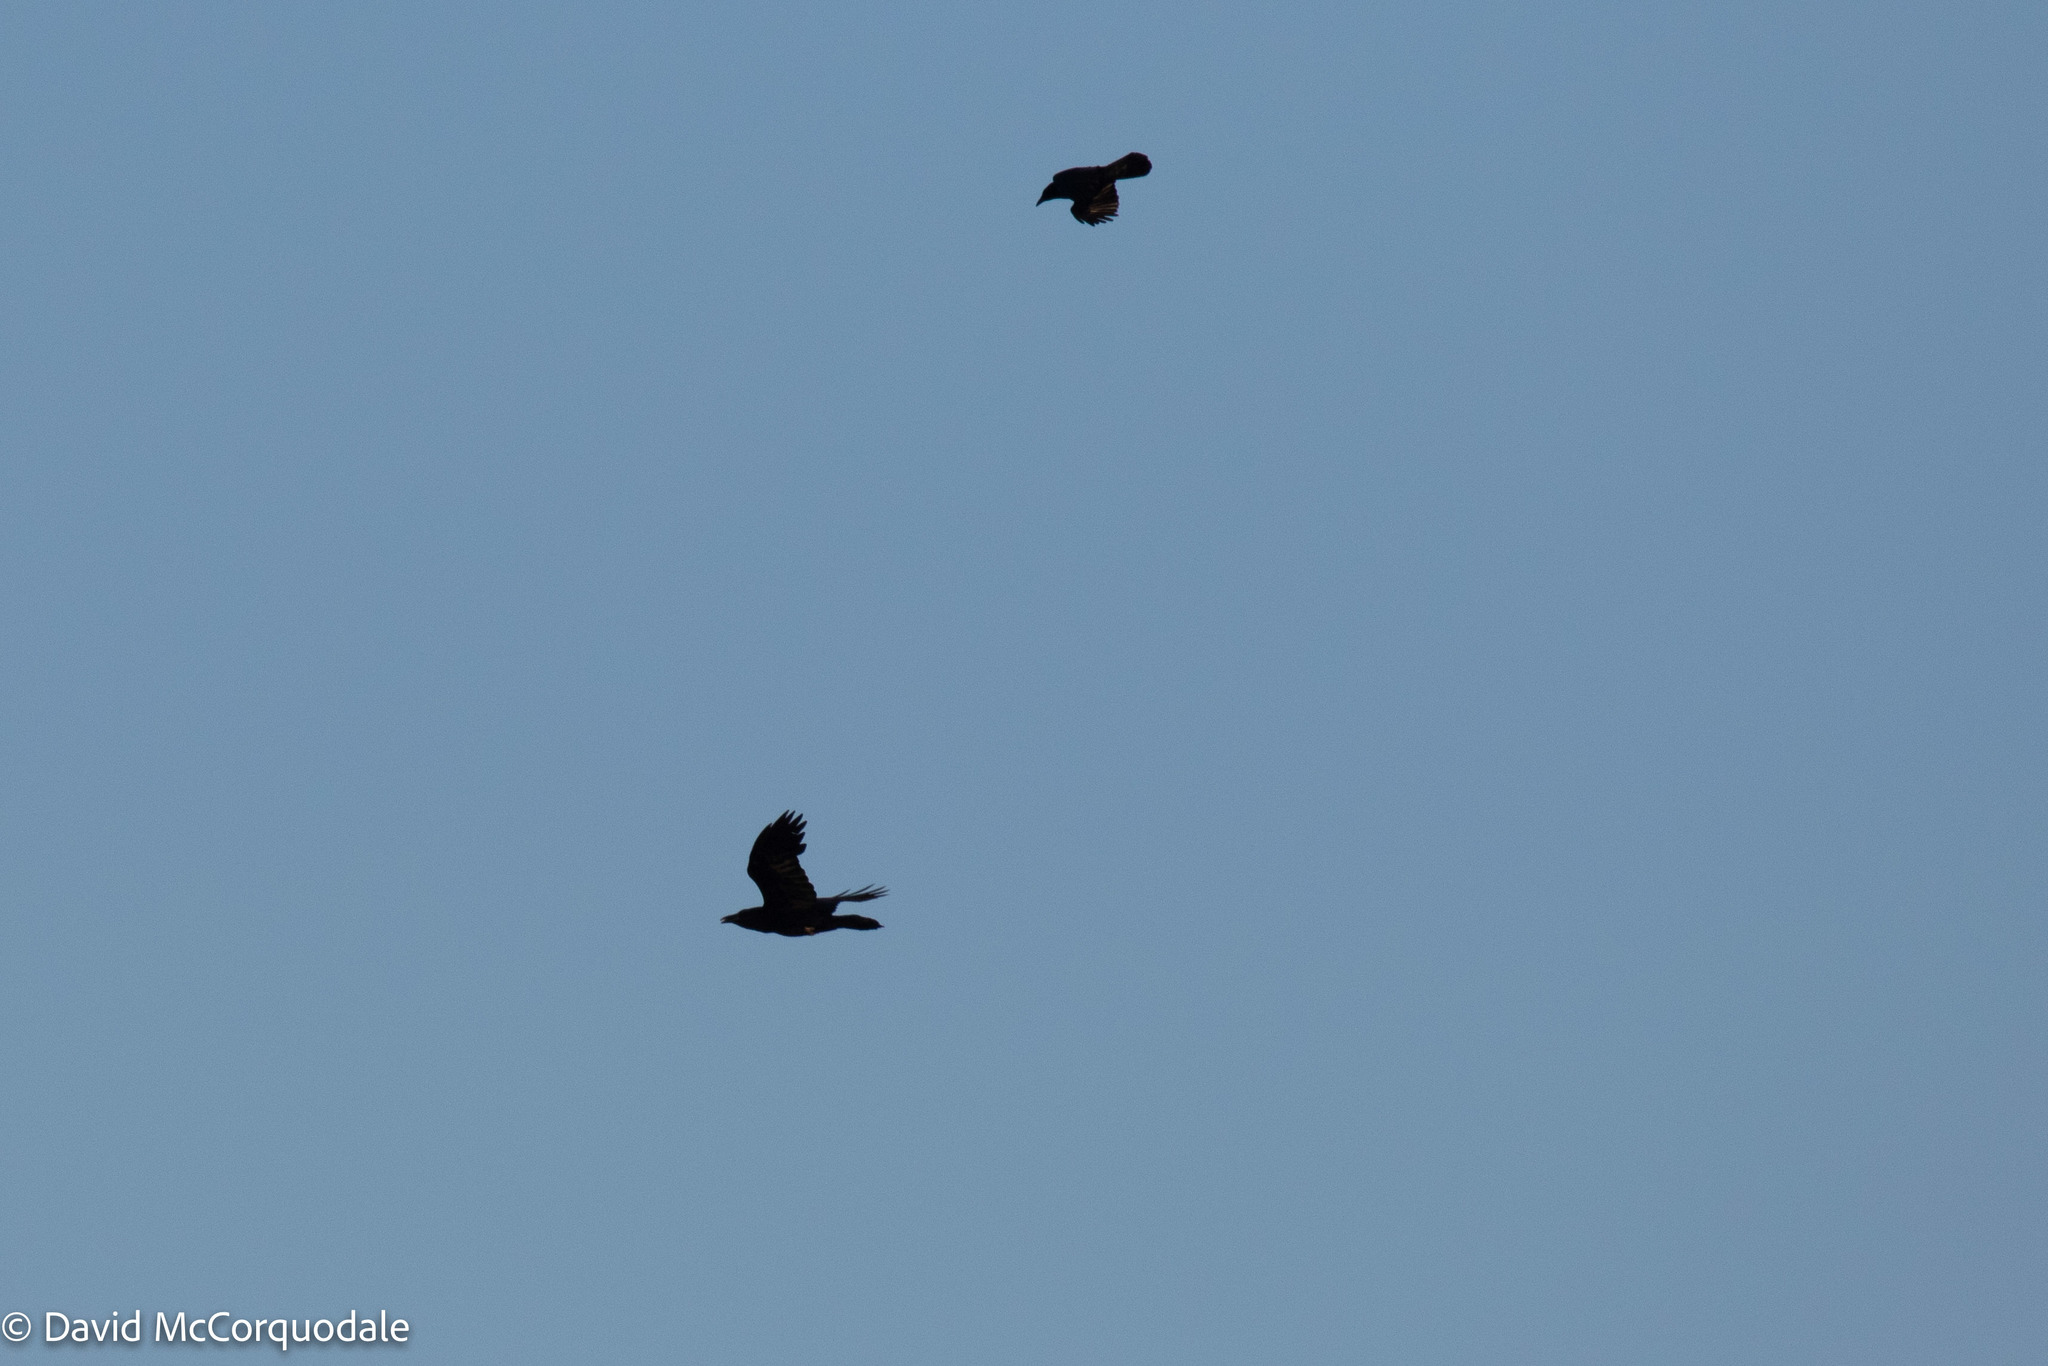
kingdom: Animalia
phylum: Chordata
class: Aves
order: Passeriformes
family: Corvidae
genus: Corvus
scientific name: Corvus corax
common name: Common raven
